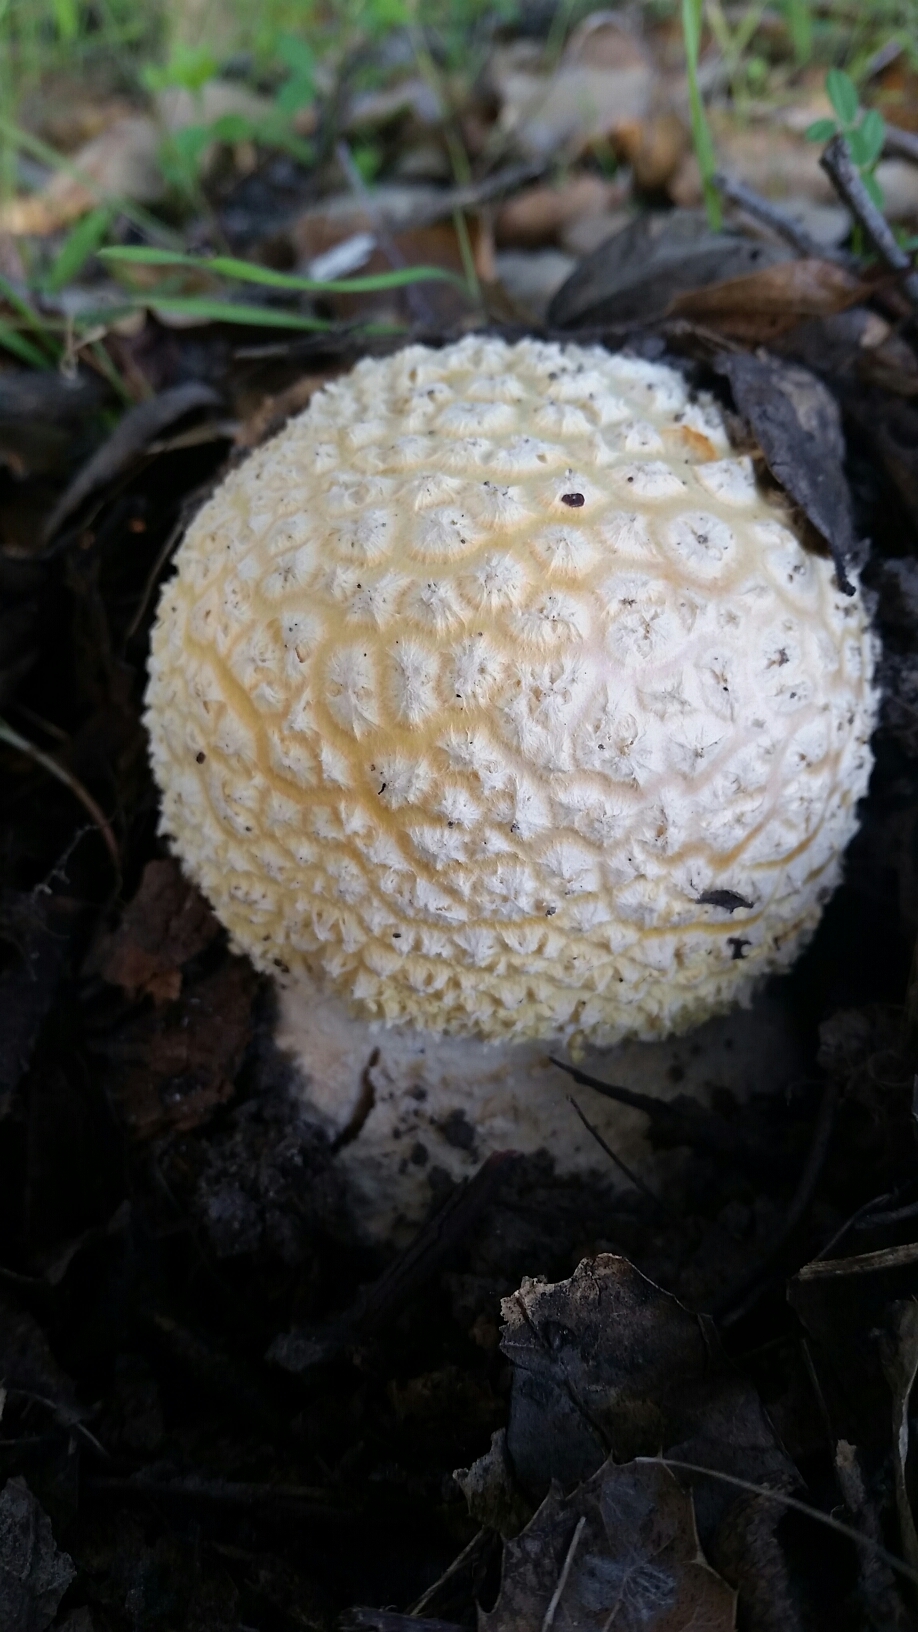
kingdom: Fungi
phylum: Basidiomycota
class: Agaricomycetes
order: Agaricales
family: Amanitaceae
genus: Amanita
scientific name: Amanita muscaria
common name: Fly agaric
